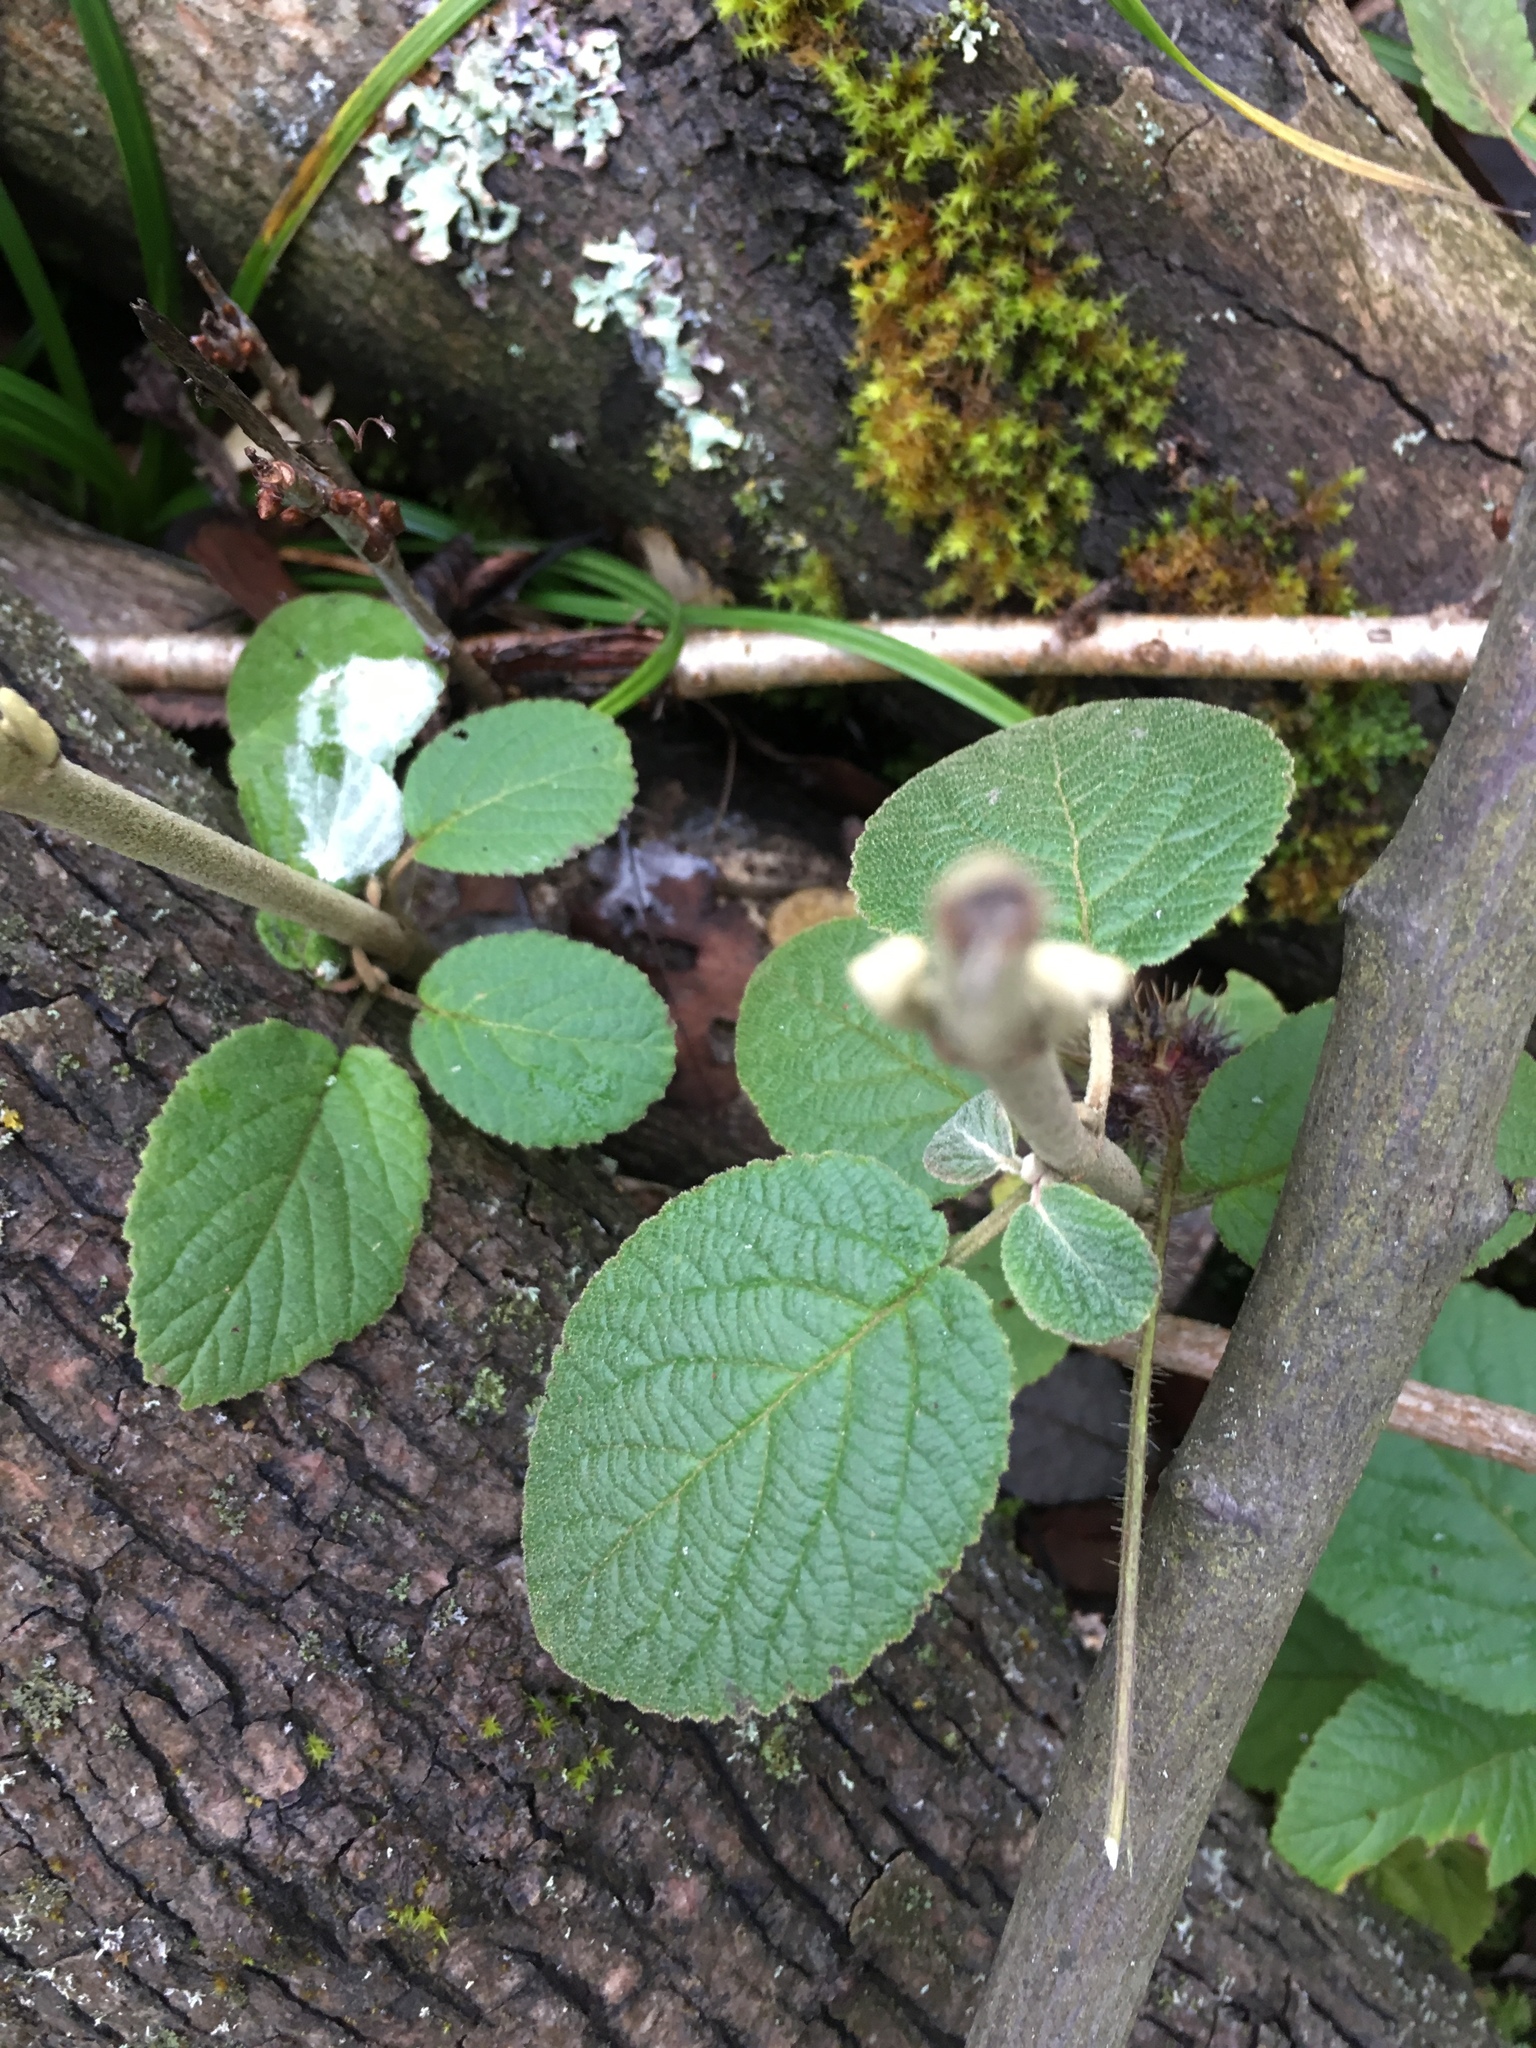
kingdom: Plantae
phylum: Tracheophyta
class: Magnoliopsida
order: Dipsacales
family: Viburnaceae
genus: Viburnum
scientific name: Viburnum lantana
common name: Wayfaring tree
